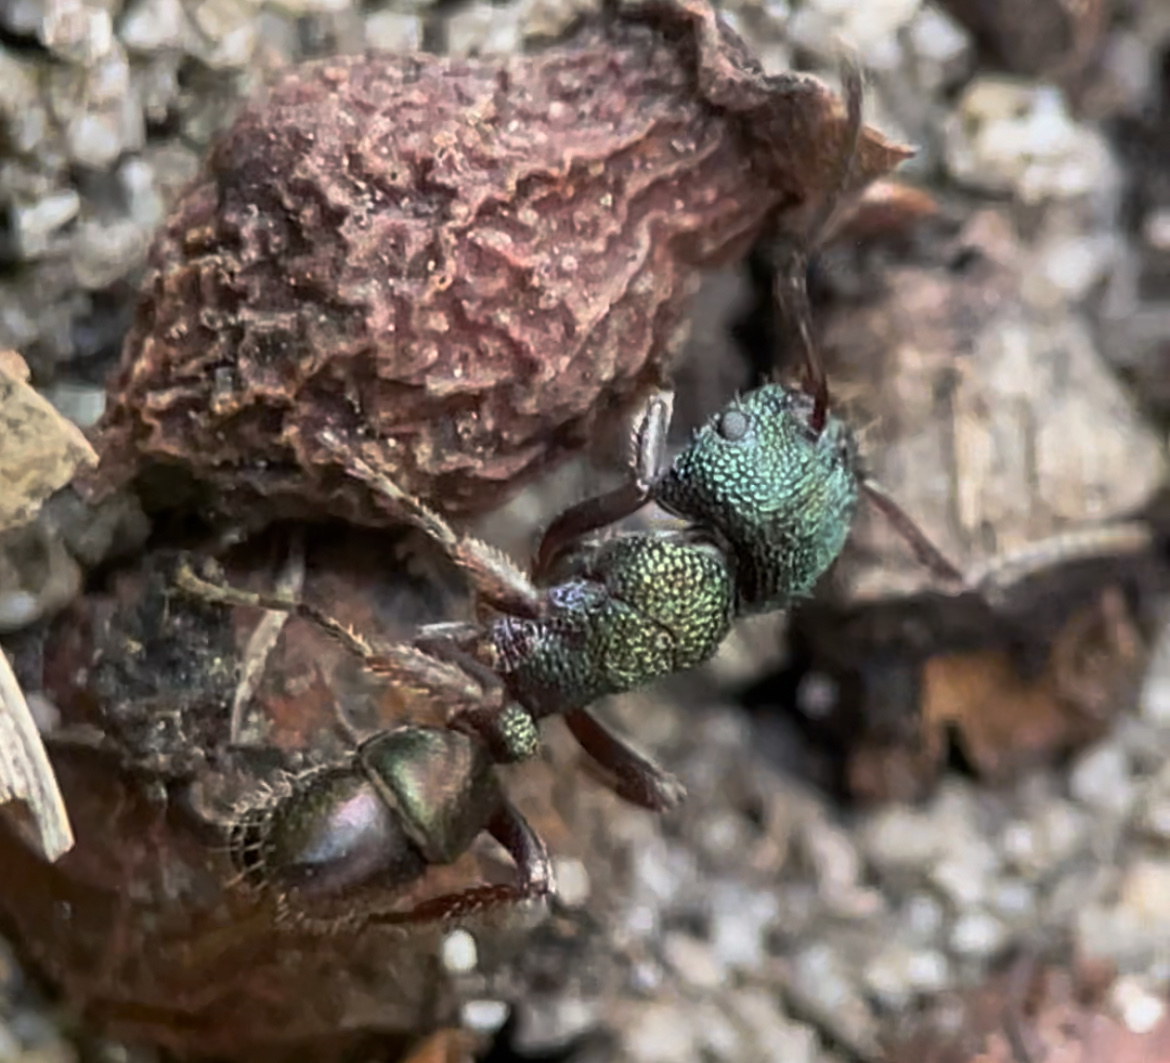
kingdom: Animalia
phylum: Arthropoda
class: Insecta
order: Hymenoptera
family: Formicidae
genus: Rhytidoponera
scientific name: Rhytidoponera metallica
